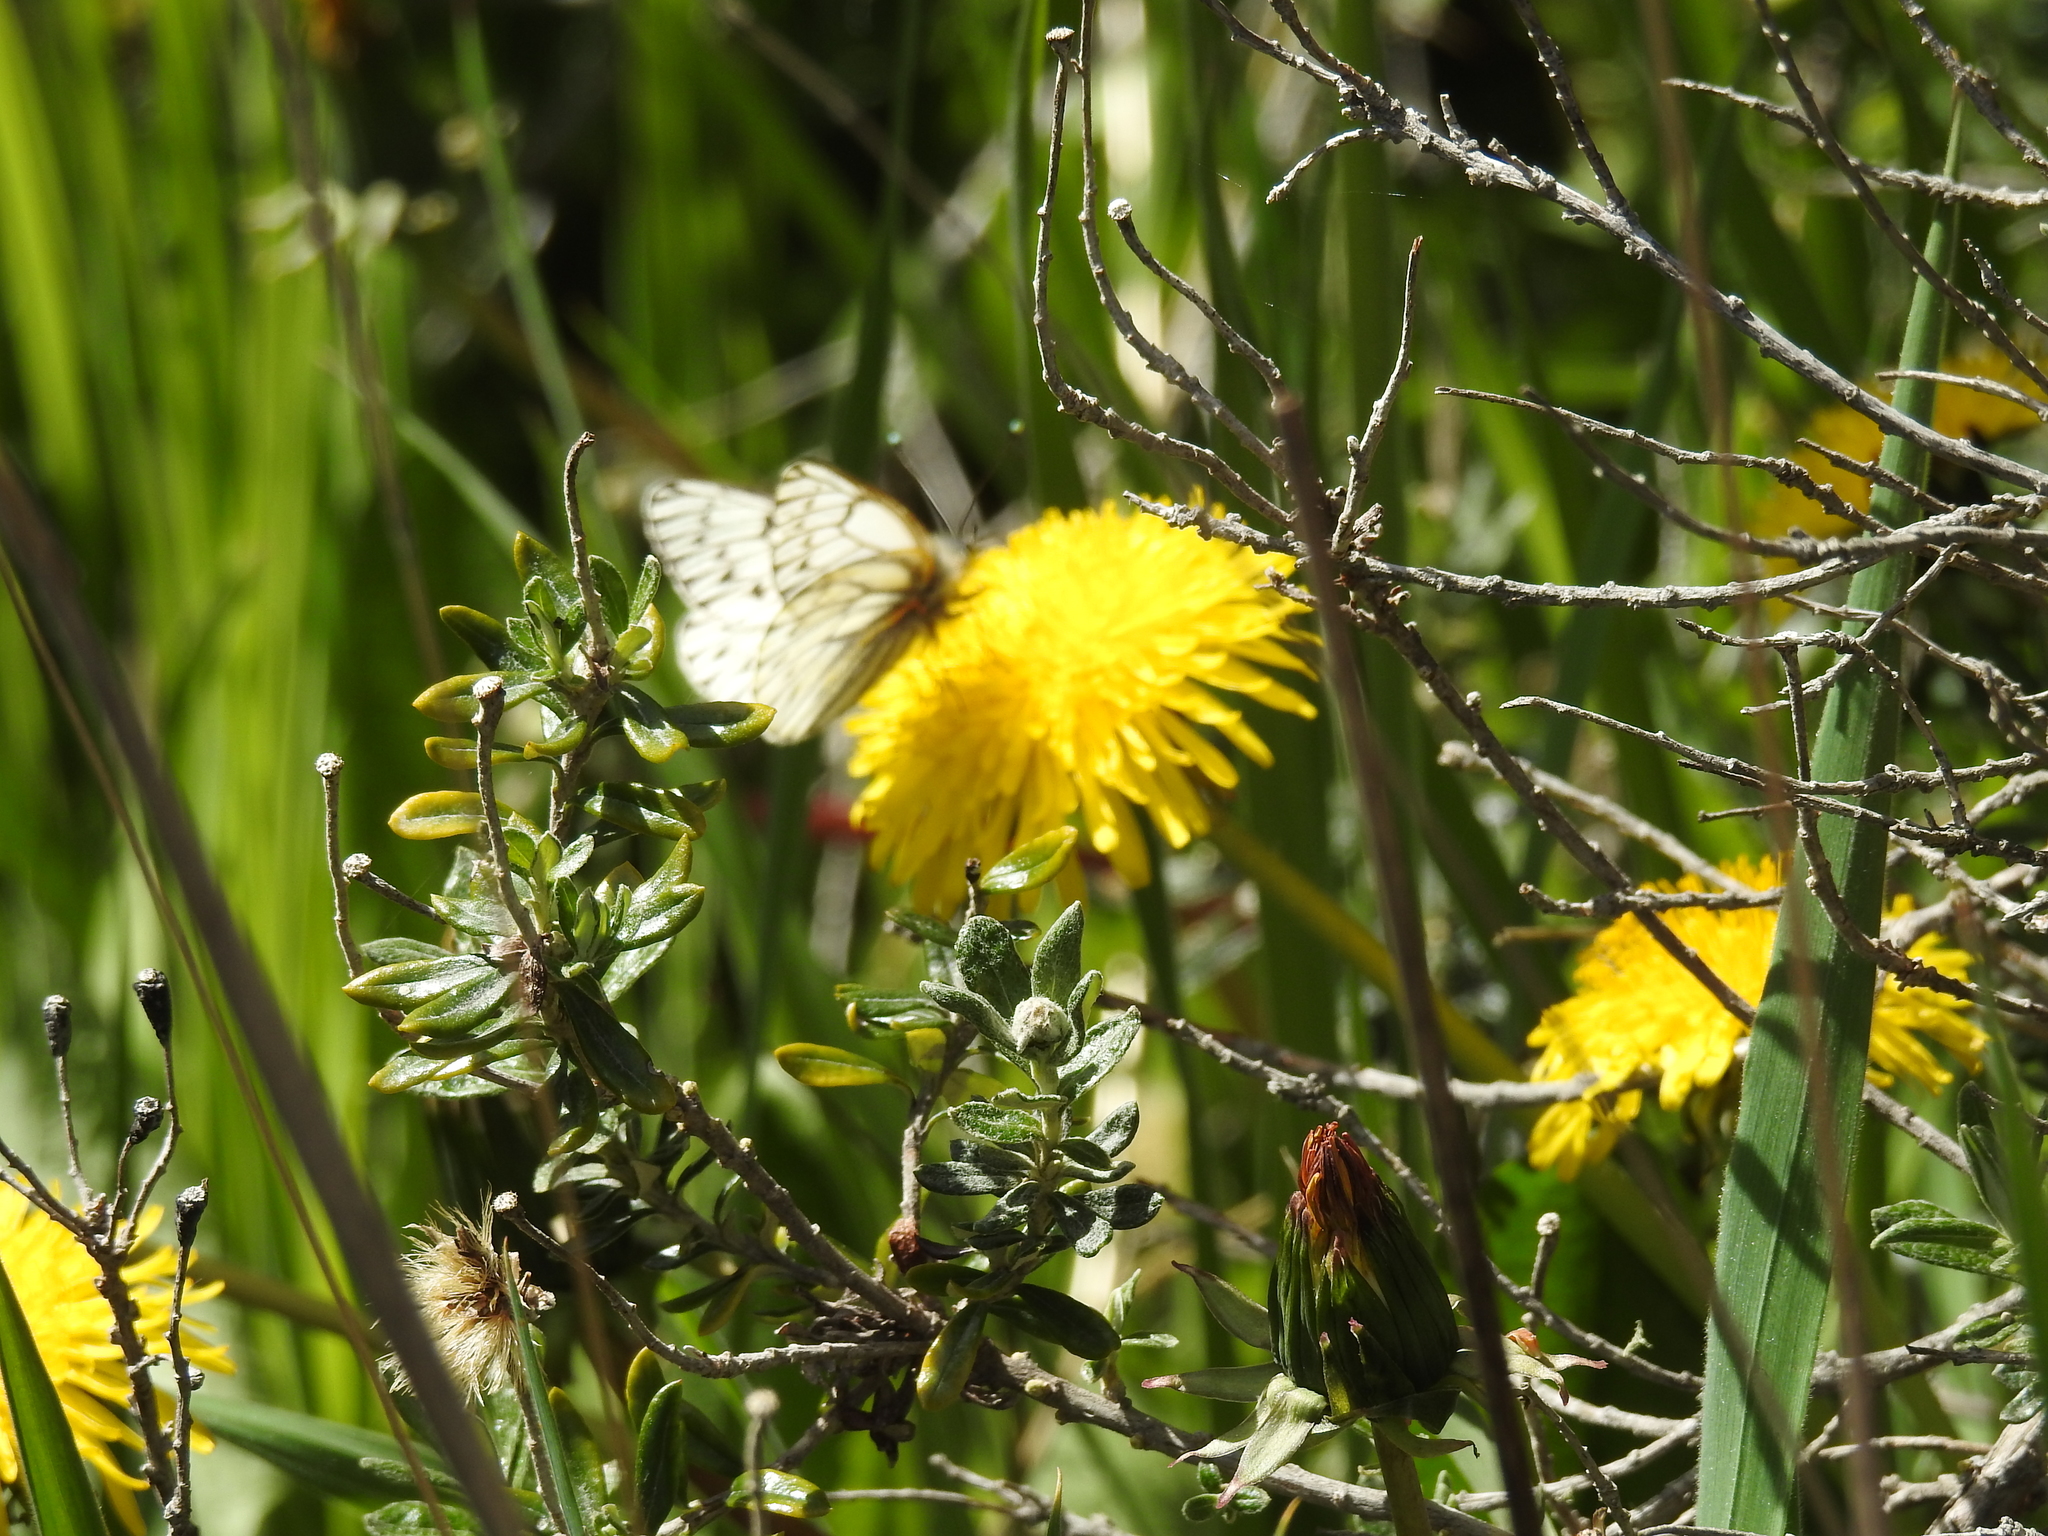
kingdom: Animalia
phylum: Arthropoda
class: Insecta
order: Lepidoptera
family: Pieridae
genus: Tatochila
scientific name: Tatochila theodice
